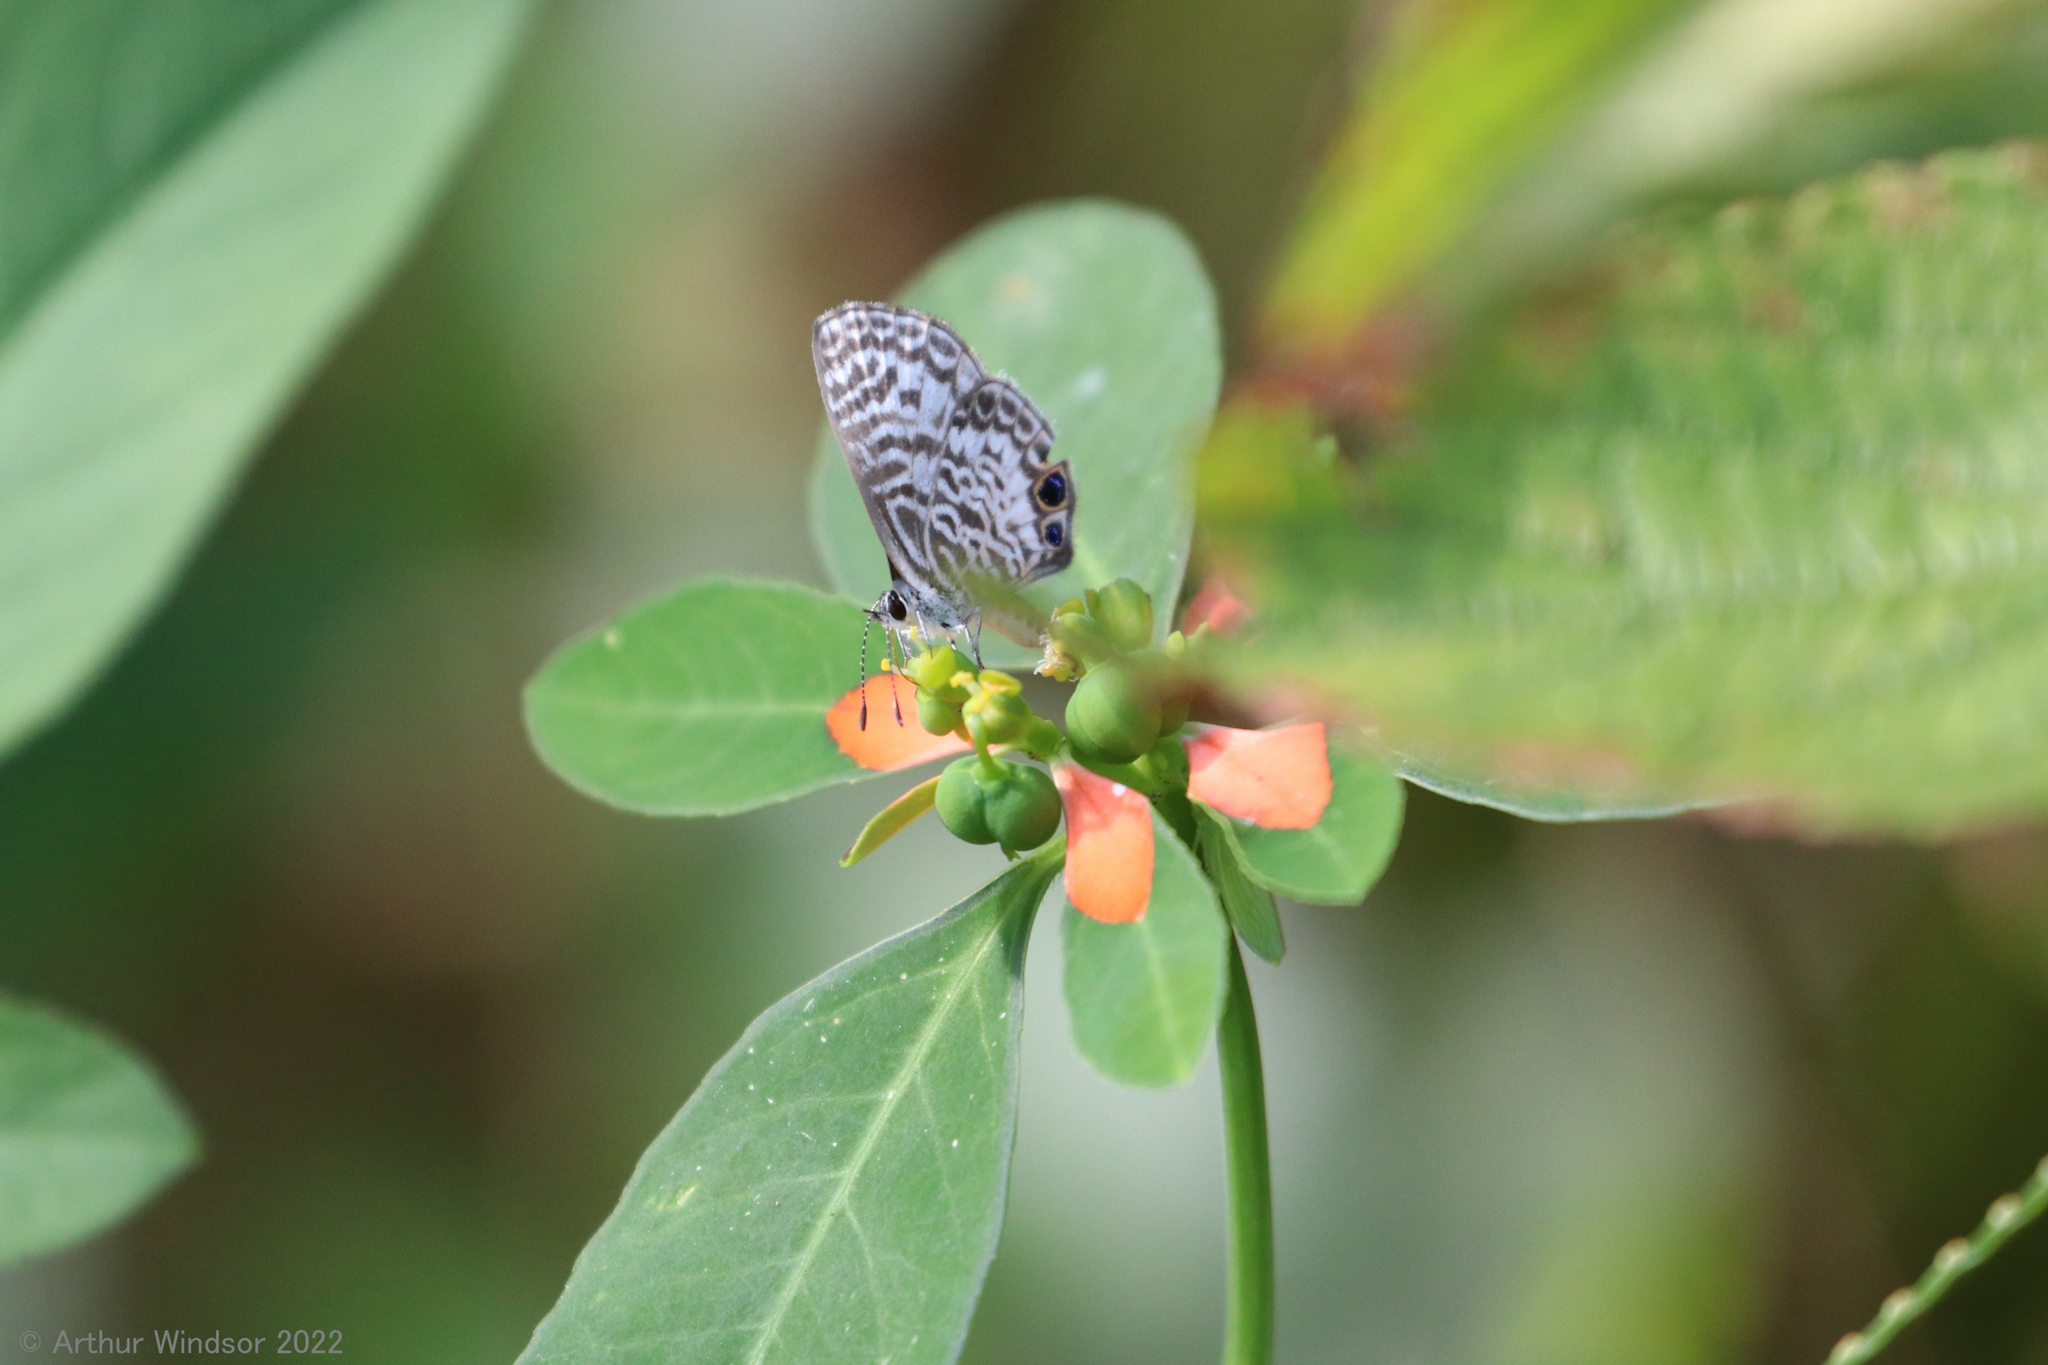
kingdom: Animalia
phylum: Arthropoda
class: Insecta
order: Lepidoptera
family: Lycaenidae
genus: Leptotes
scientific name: Leptotes cassius
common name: Cassius blue
